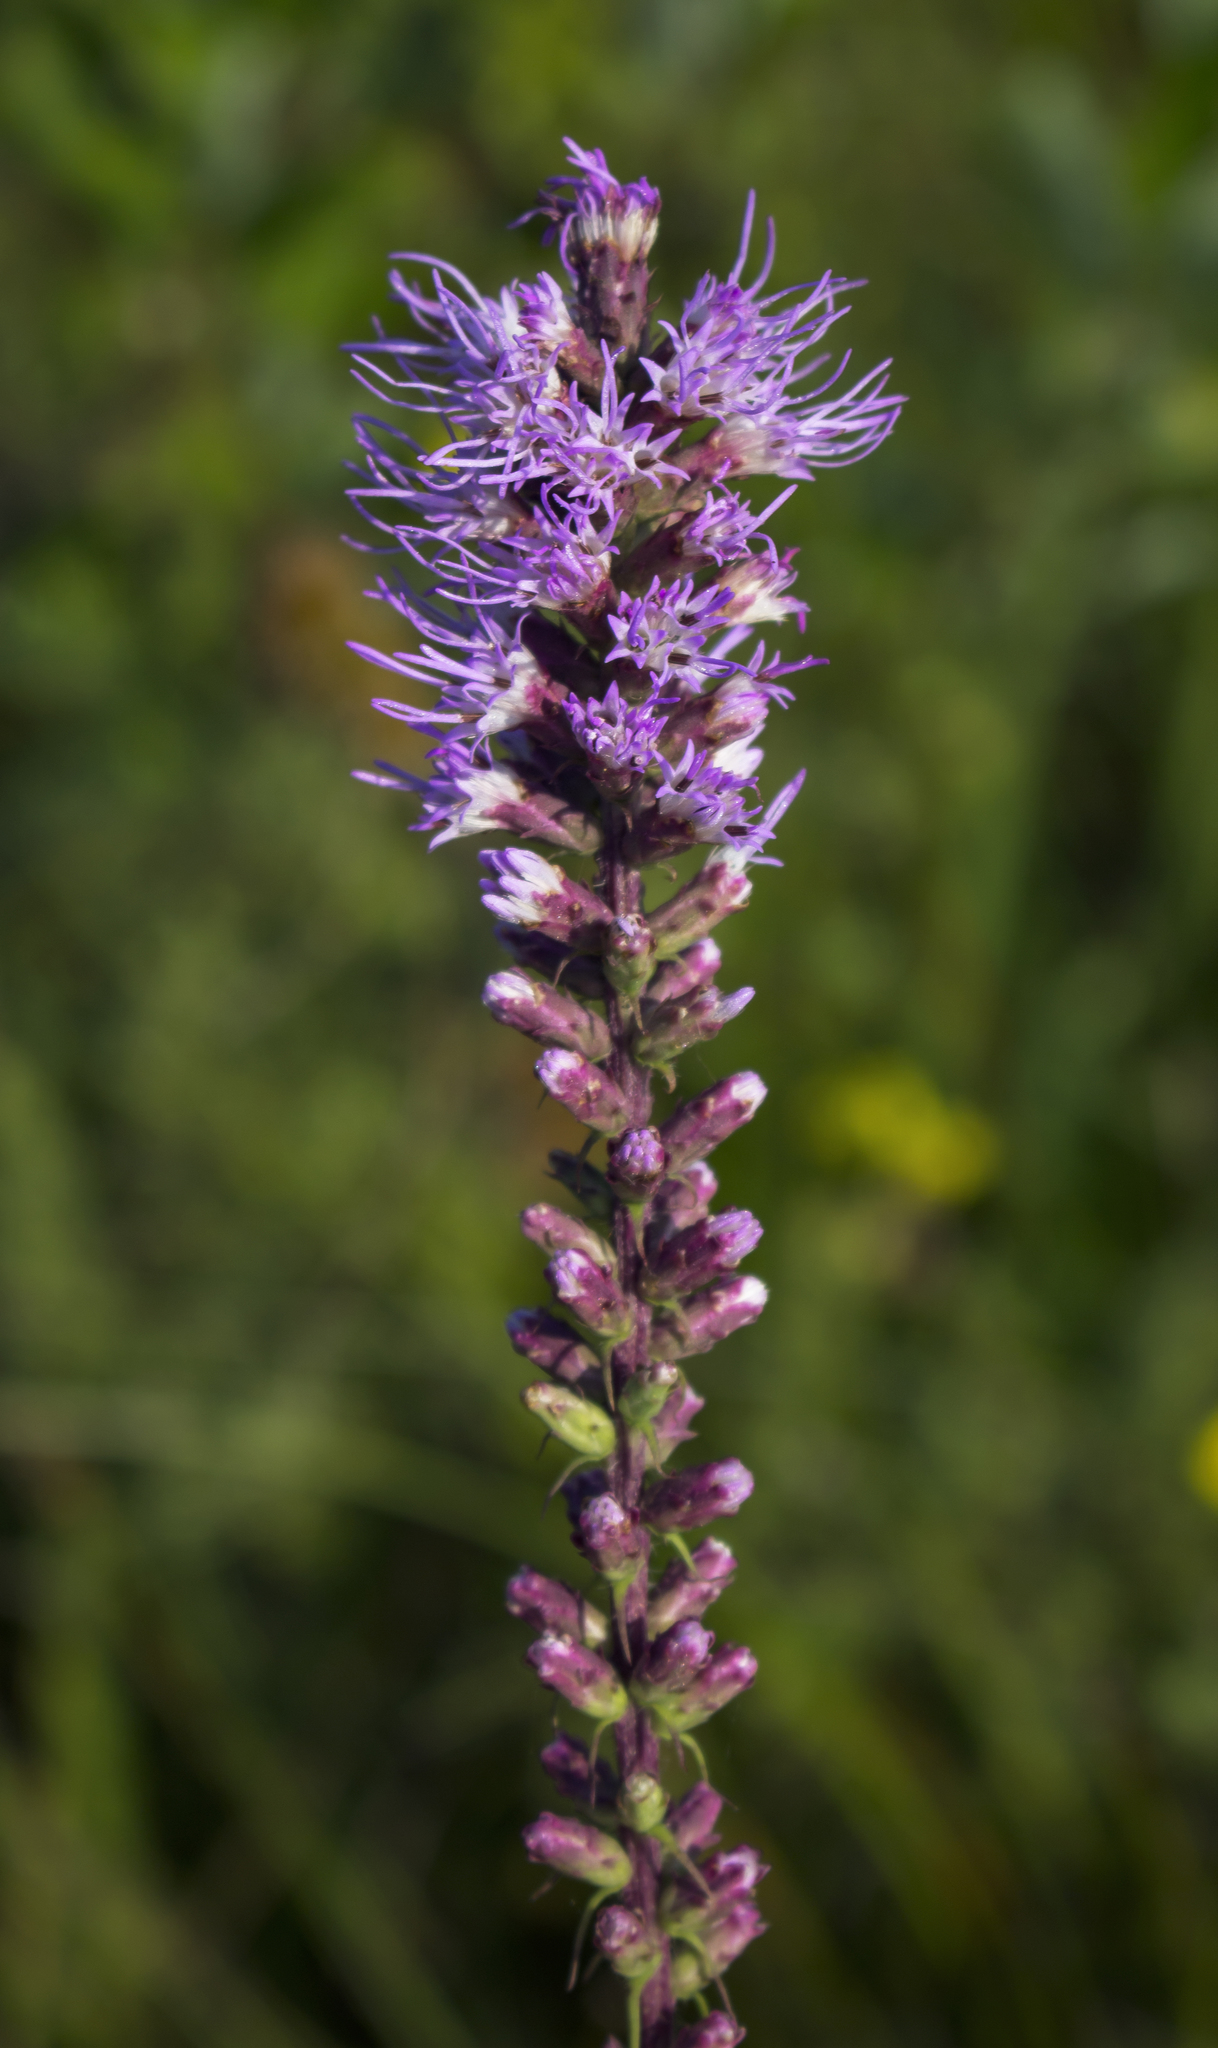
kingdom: Plantae
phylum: Tracheophyta
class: Magnoliopsida
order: Asterales
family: Asteraceae
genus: Liatris
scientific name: Liatris pycnostachya
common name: Cattail gayfeather
